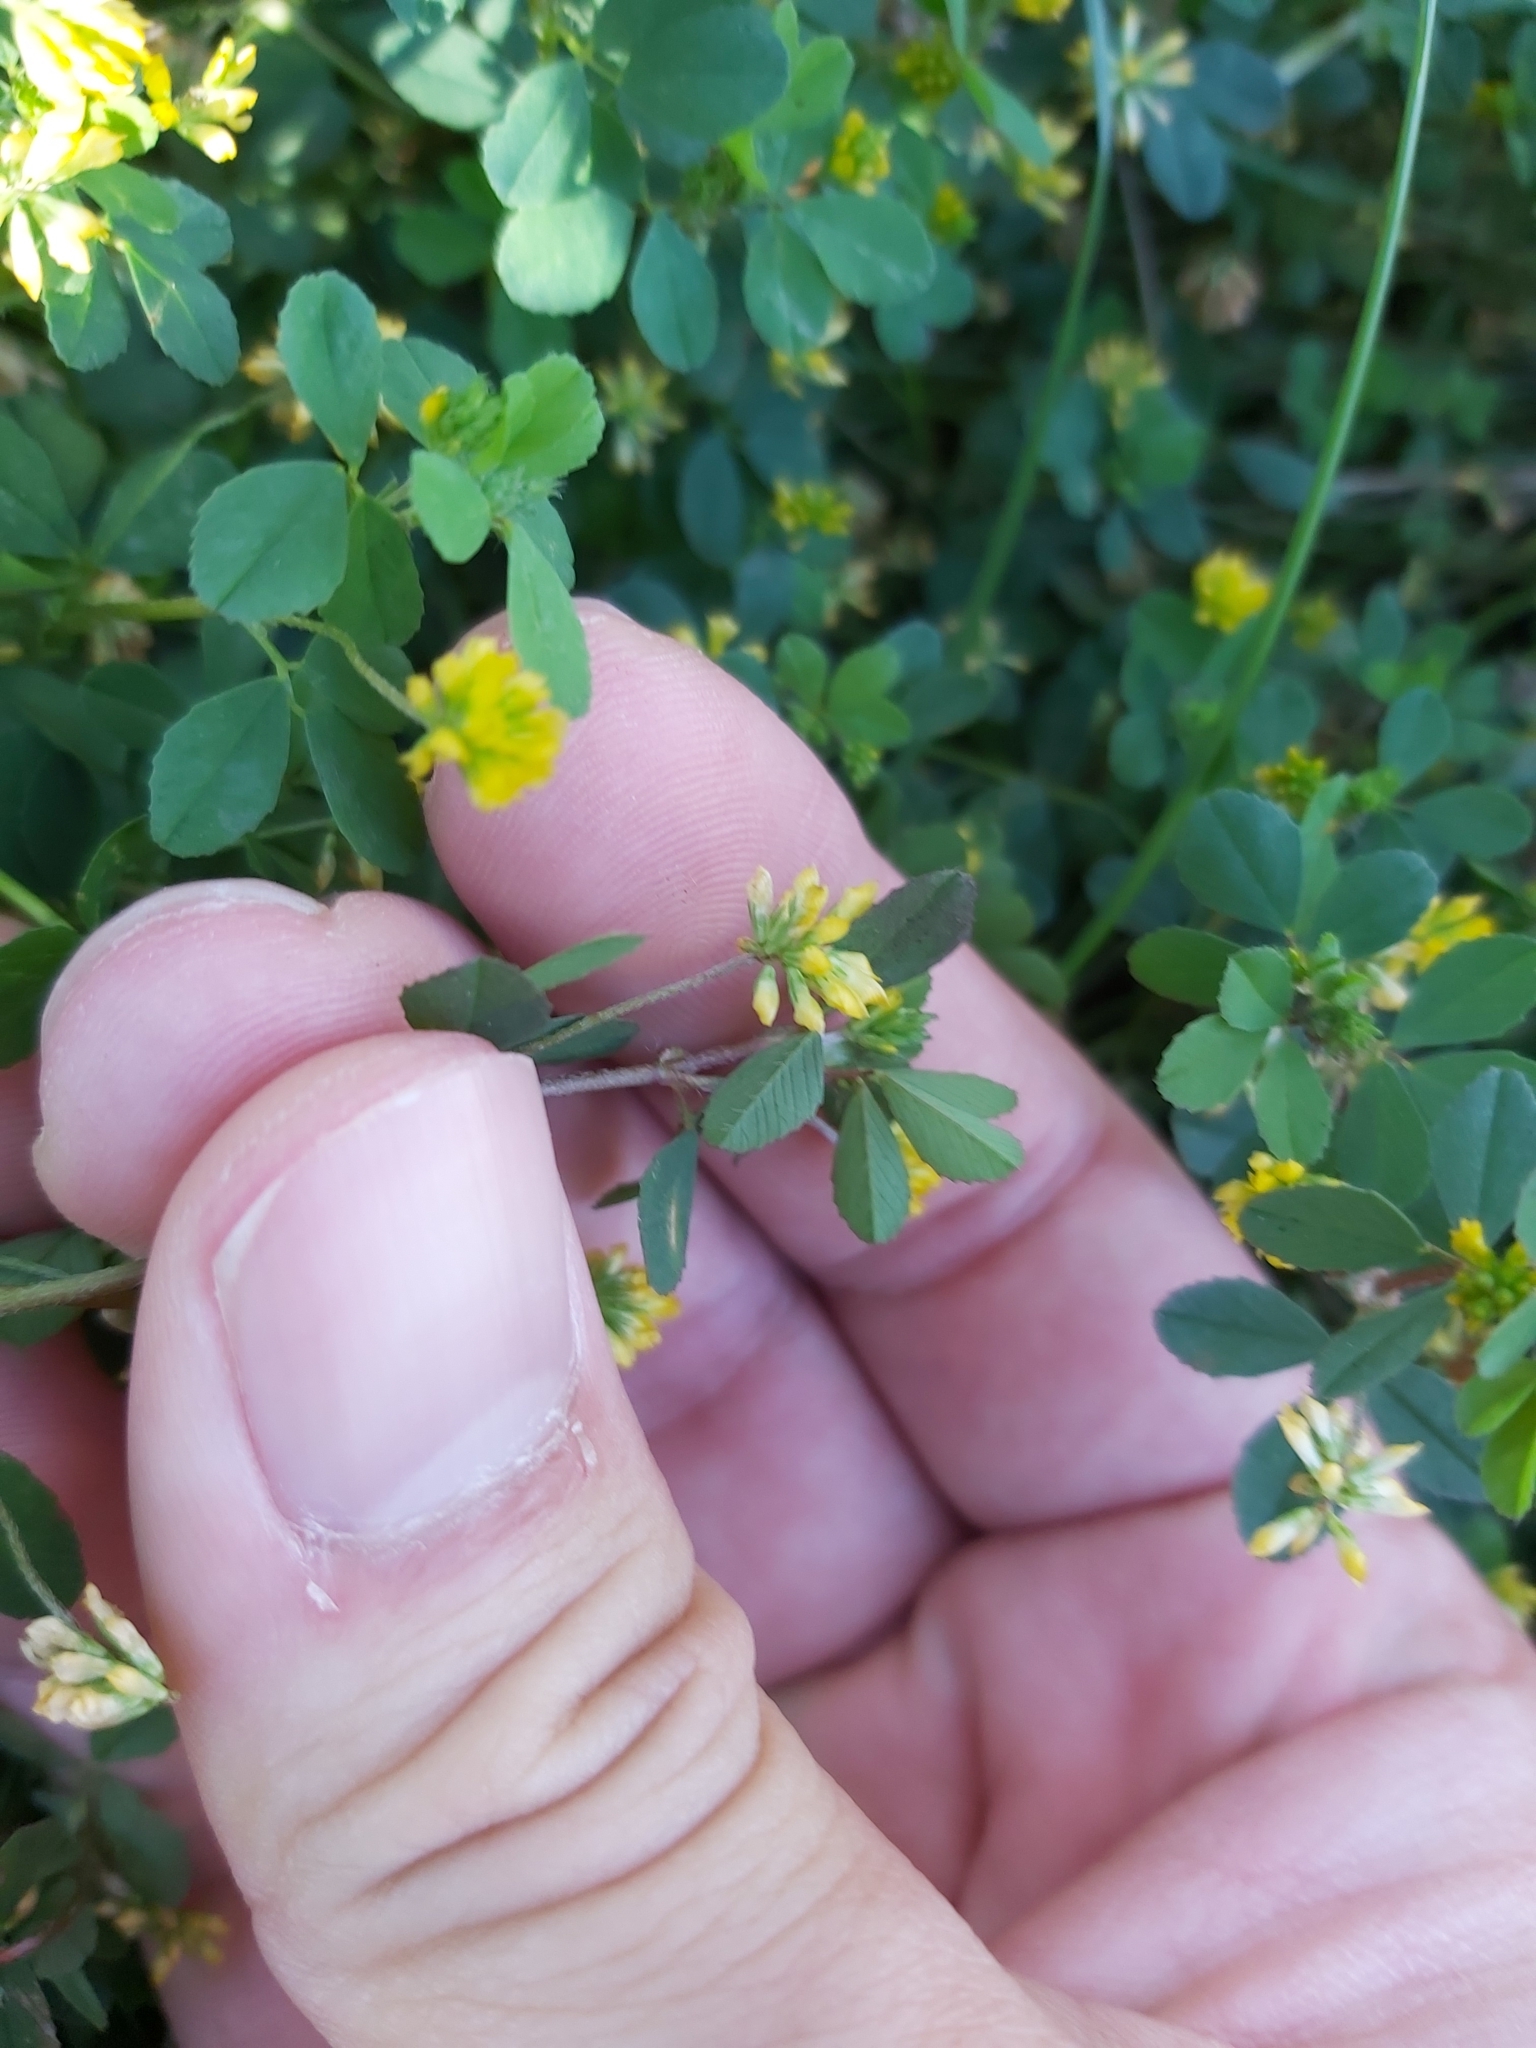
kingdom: Plantae
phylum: Tracheophyta
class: Magnoliopsida
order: Fabales
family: Fabaceae
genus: Trifolium
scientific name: Trifolium dubium
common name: Suckling clover
